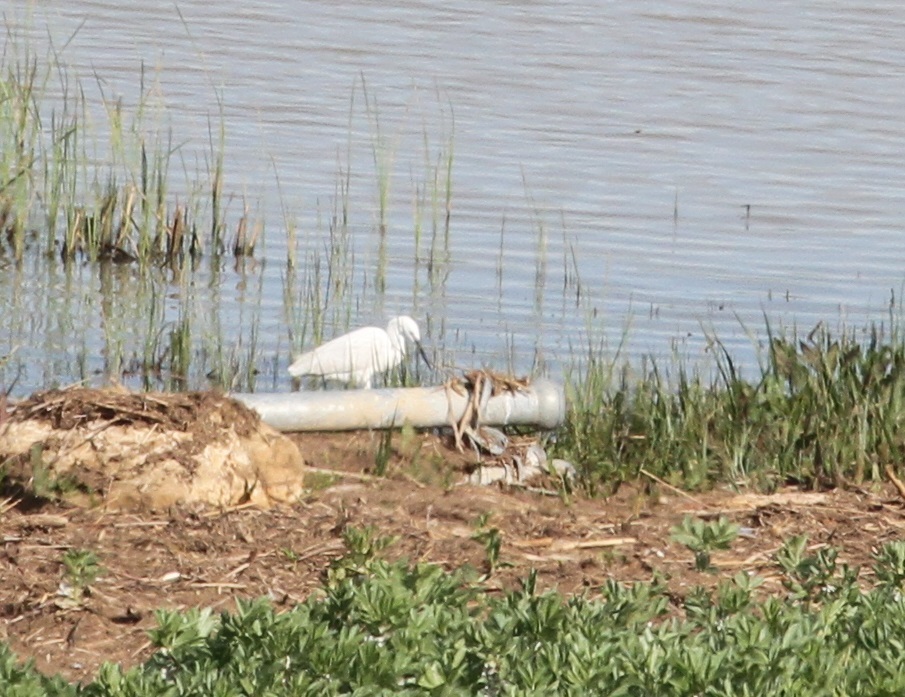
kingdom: Animalia
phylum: Chordata
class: Aves
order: Pelecaniformes
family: Ardeidae
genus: Egretta
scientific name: Egretta garzetta
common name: Little egret
